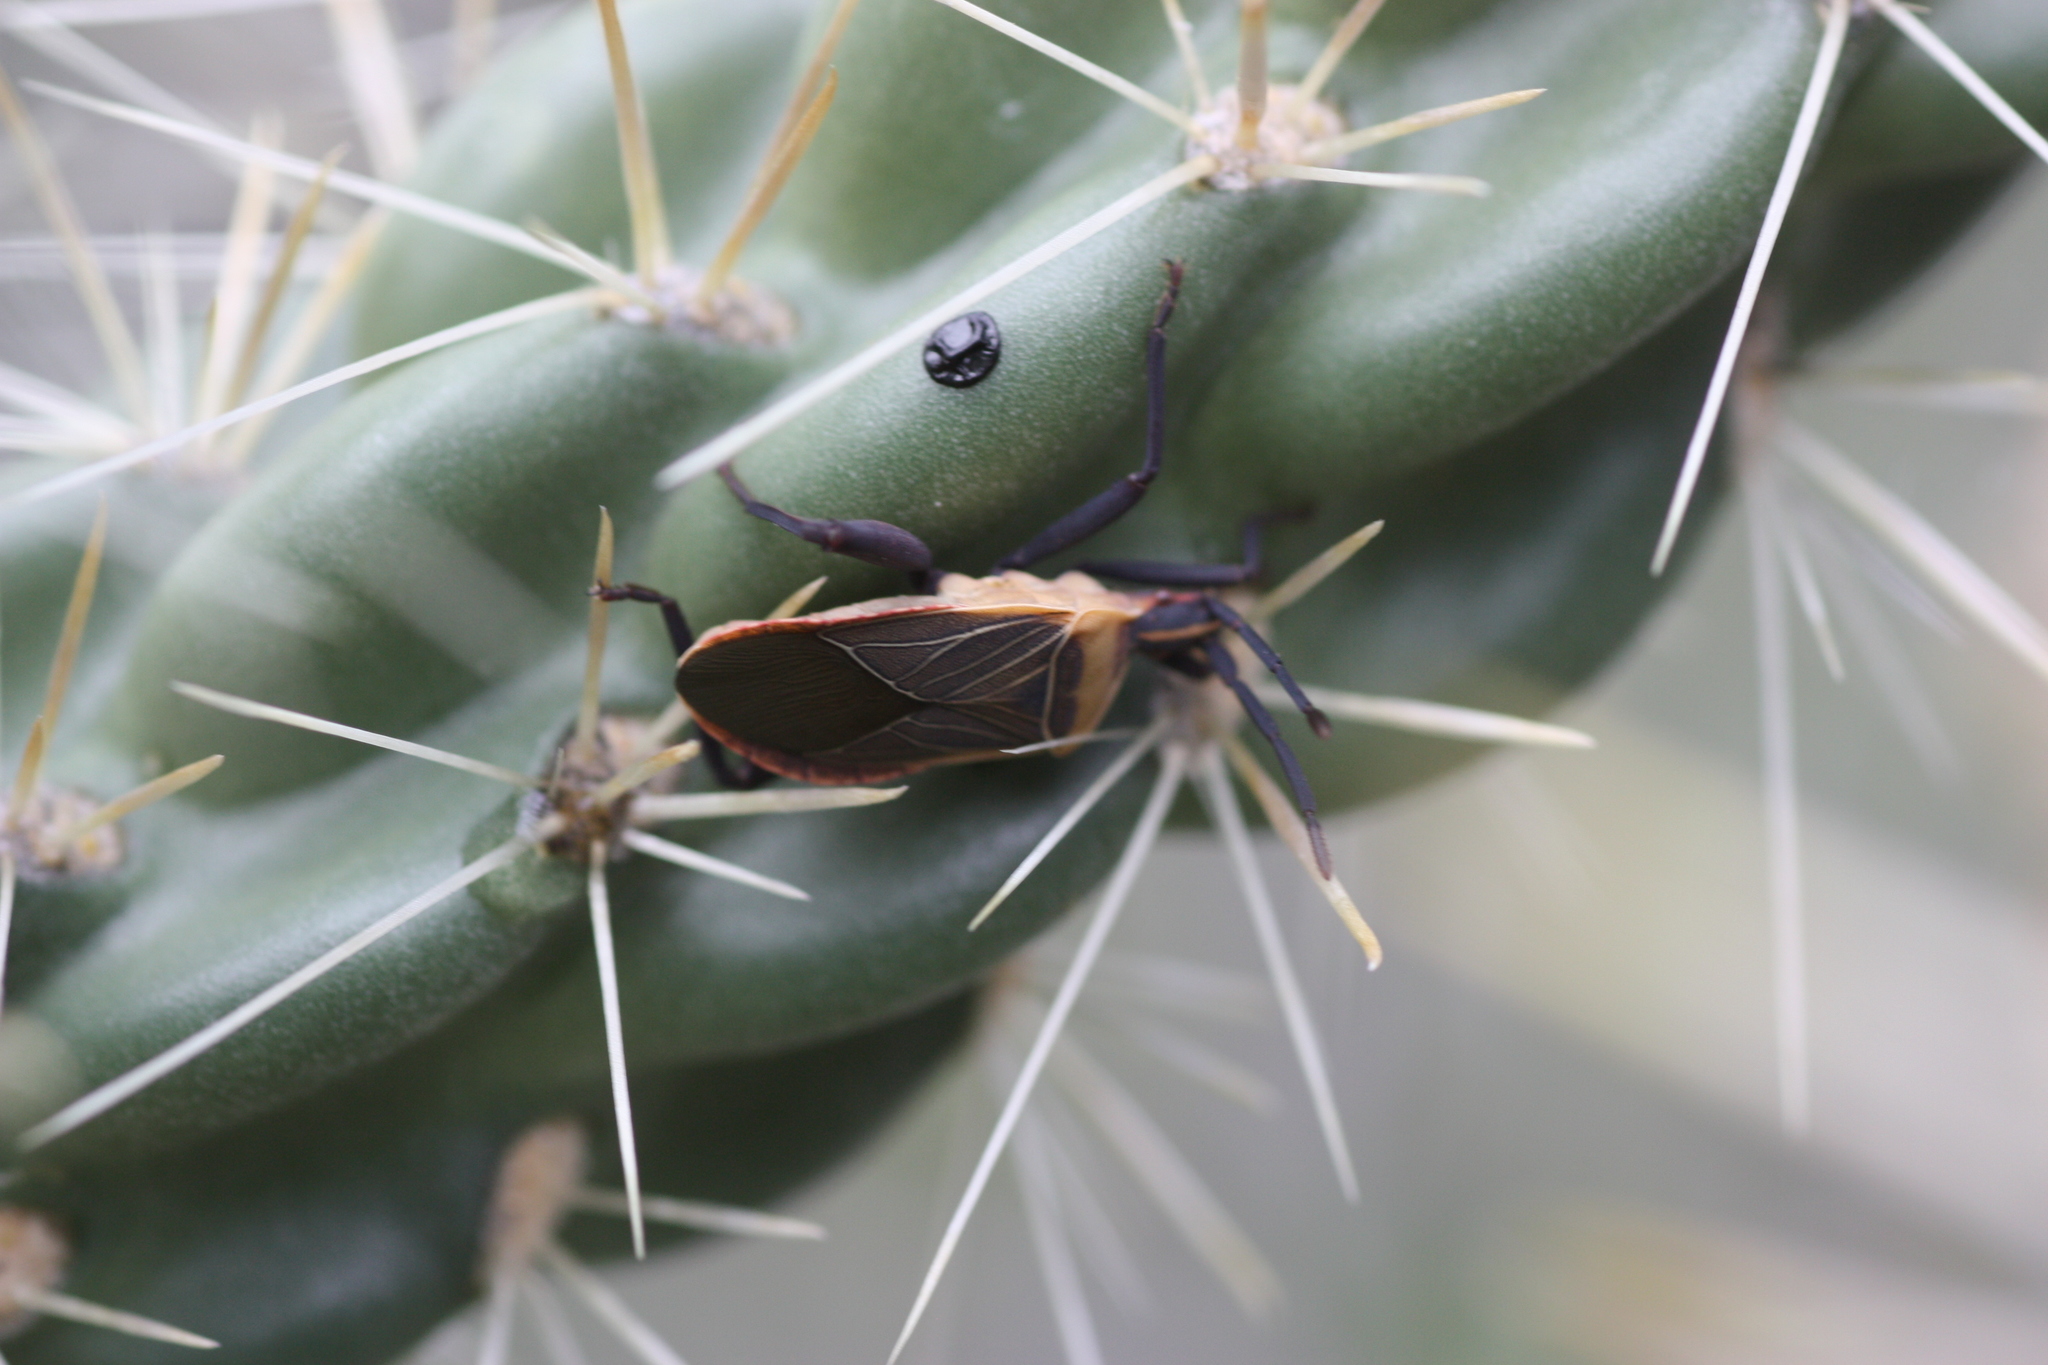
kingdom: Animalia
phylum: Arthropoda
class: Insecta
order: Hemiptera
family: Coreidae
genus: Chelinidea
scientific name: Chelinidea vittiger
